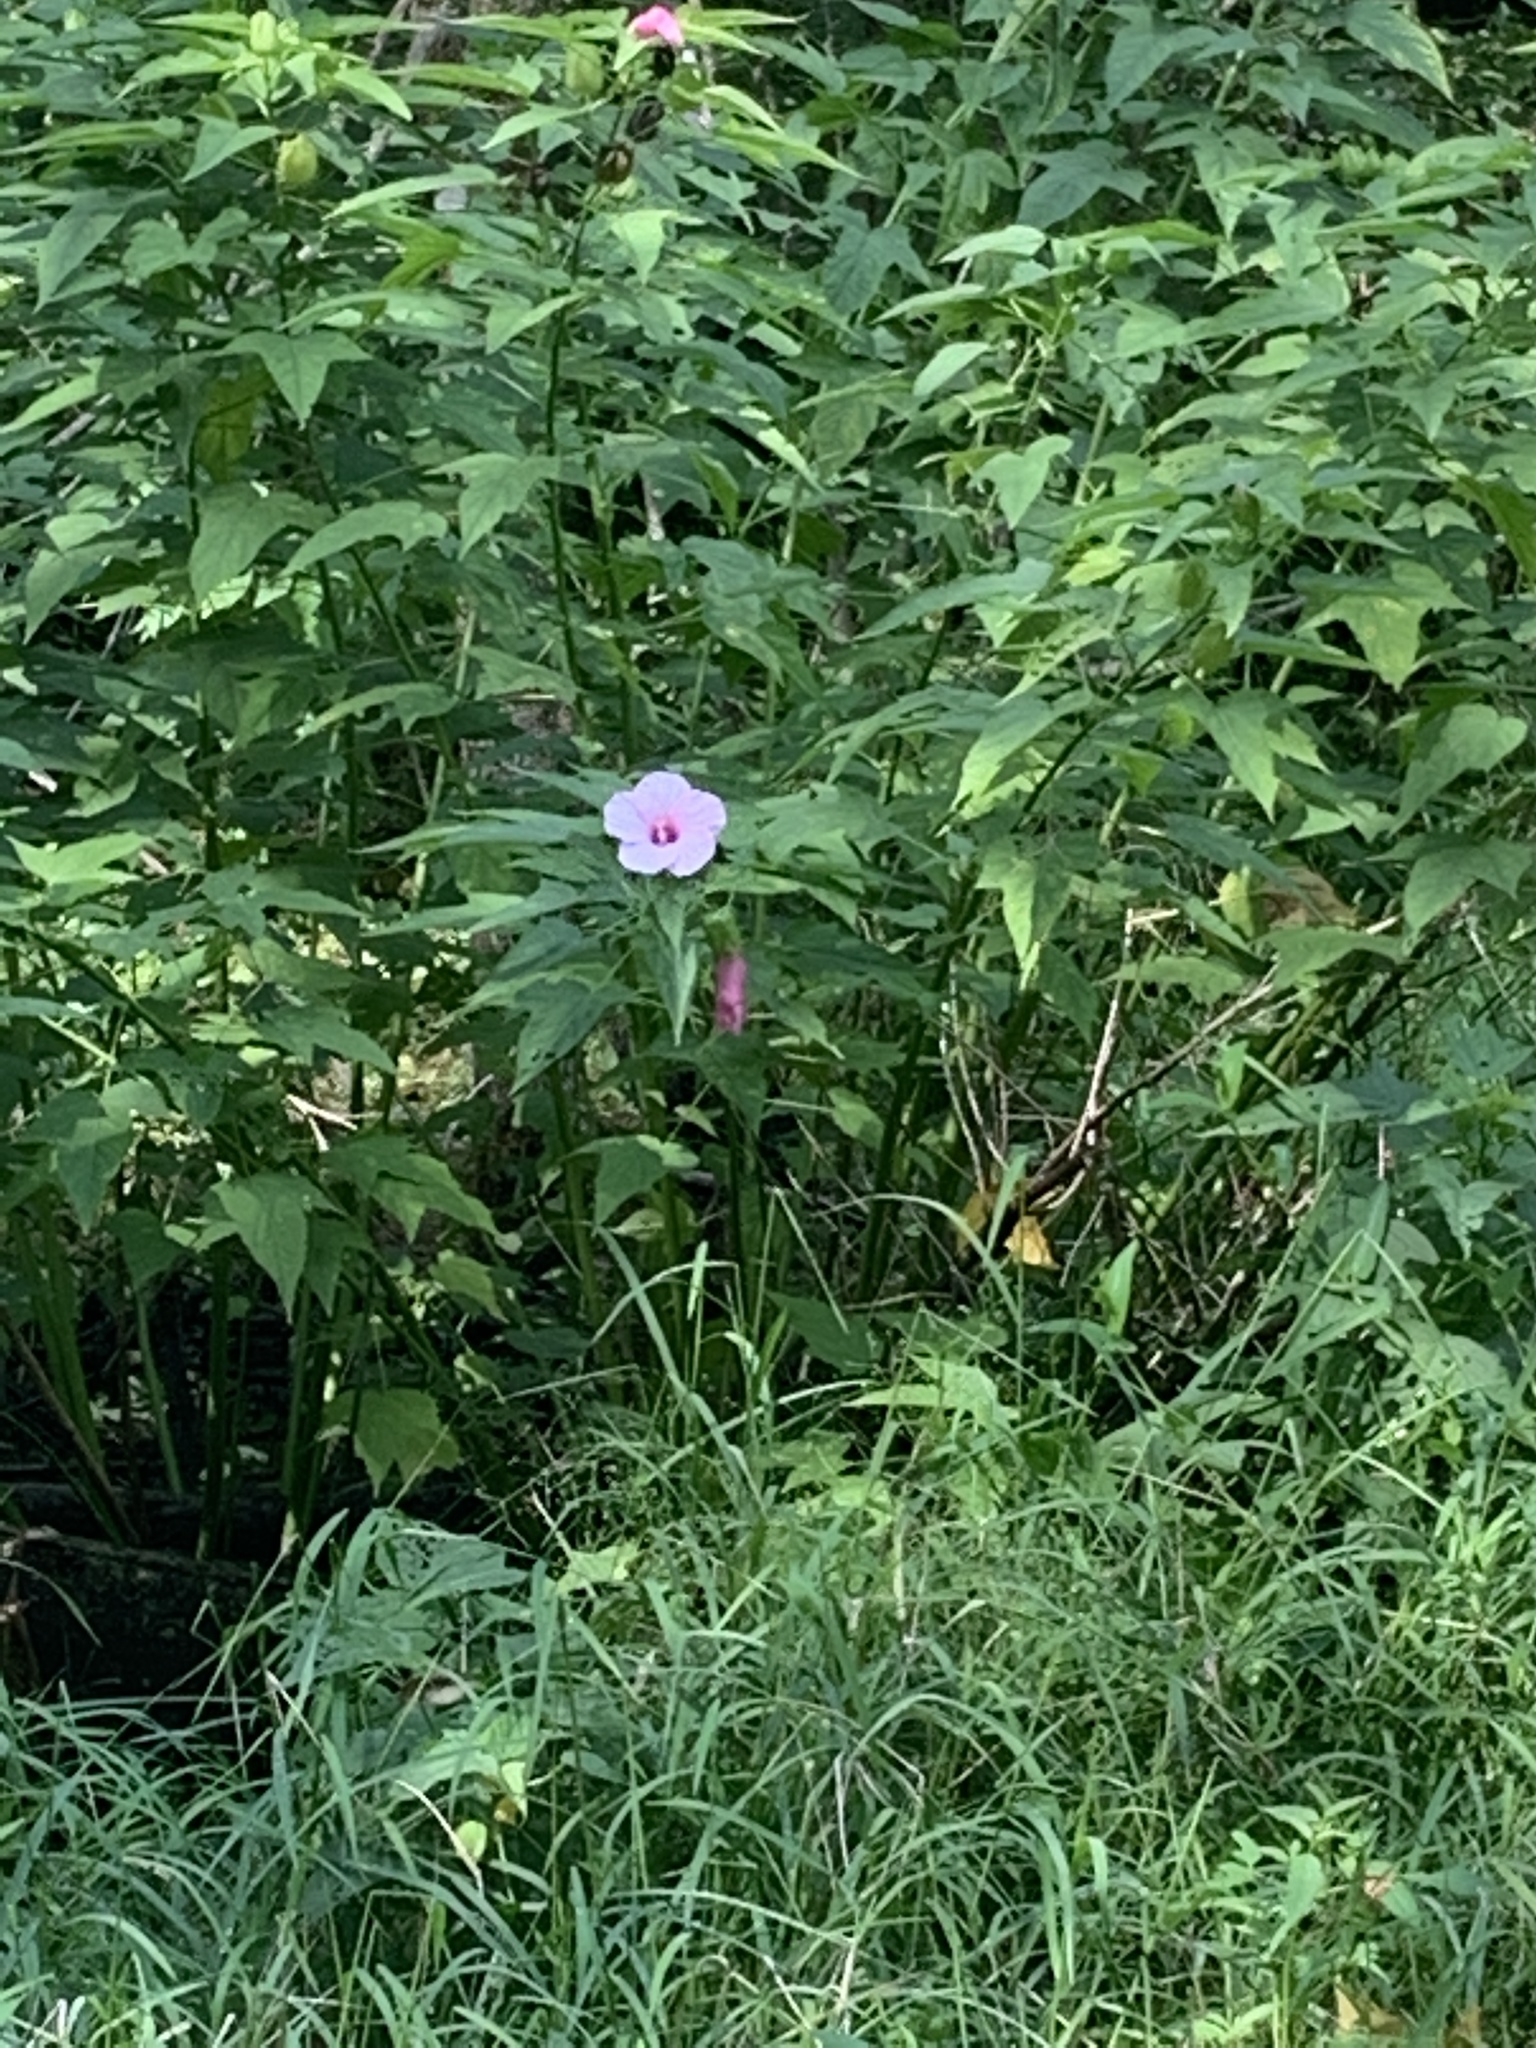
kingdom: Plantae
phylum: Tracheophyta
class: Magnoliopsida
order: Malvales
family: Malvaceae
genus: Hibiscus
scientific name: Hibiscus laevis
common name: Scarlet rose-mallow
